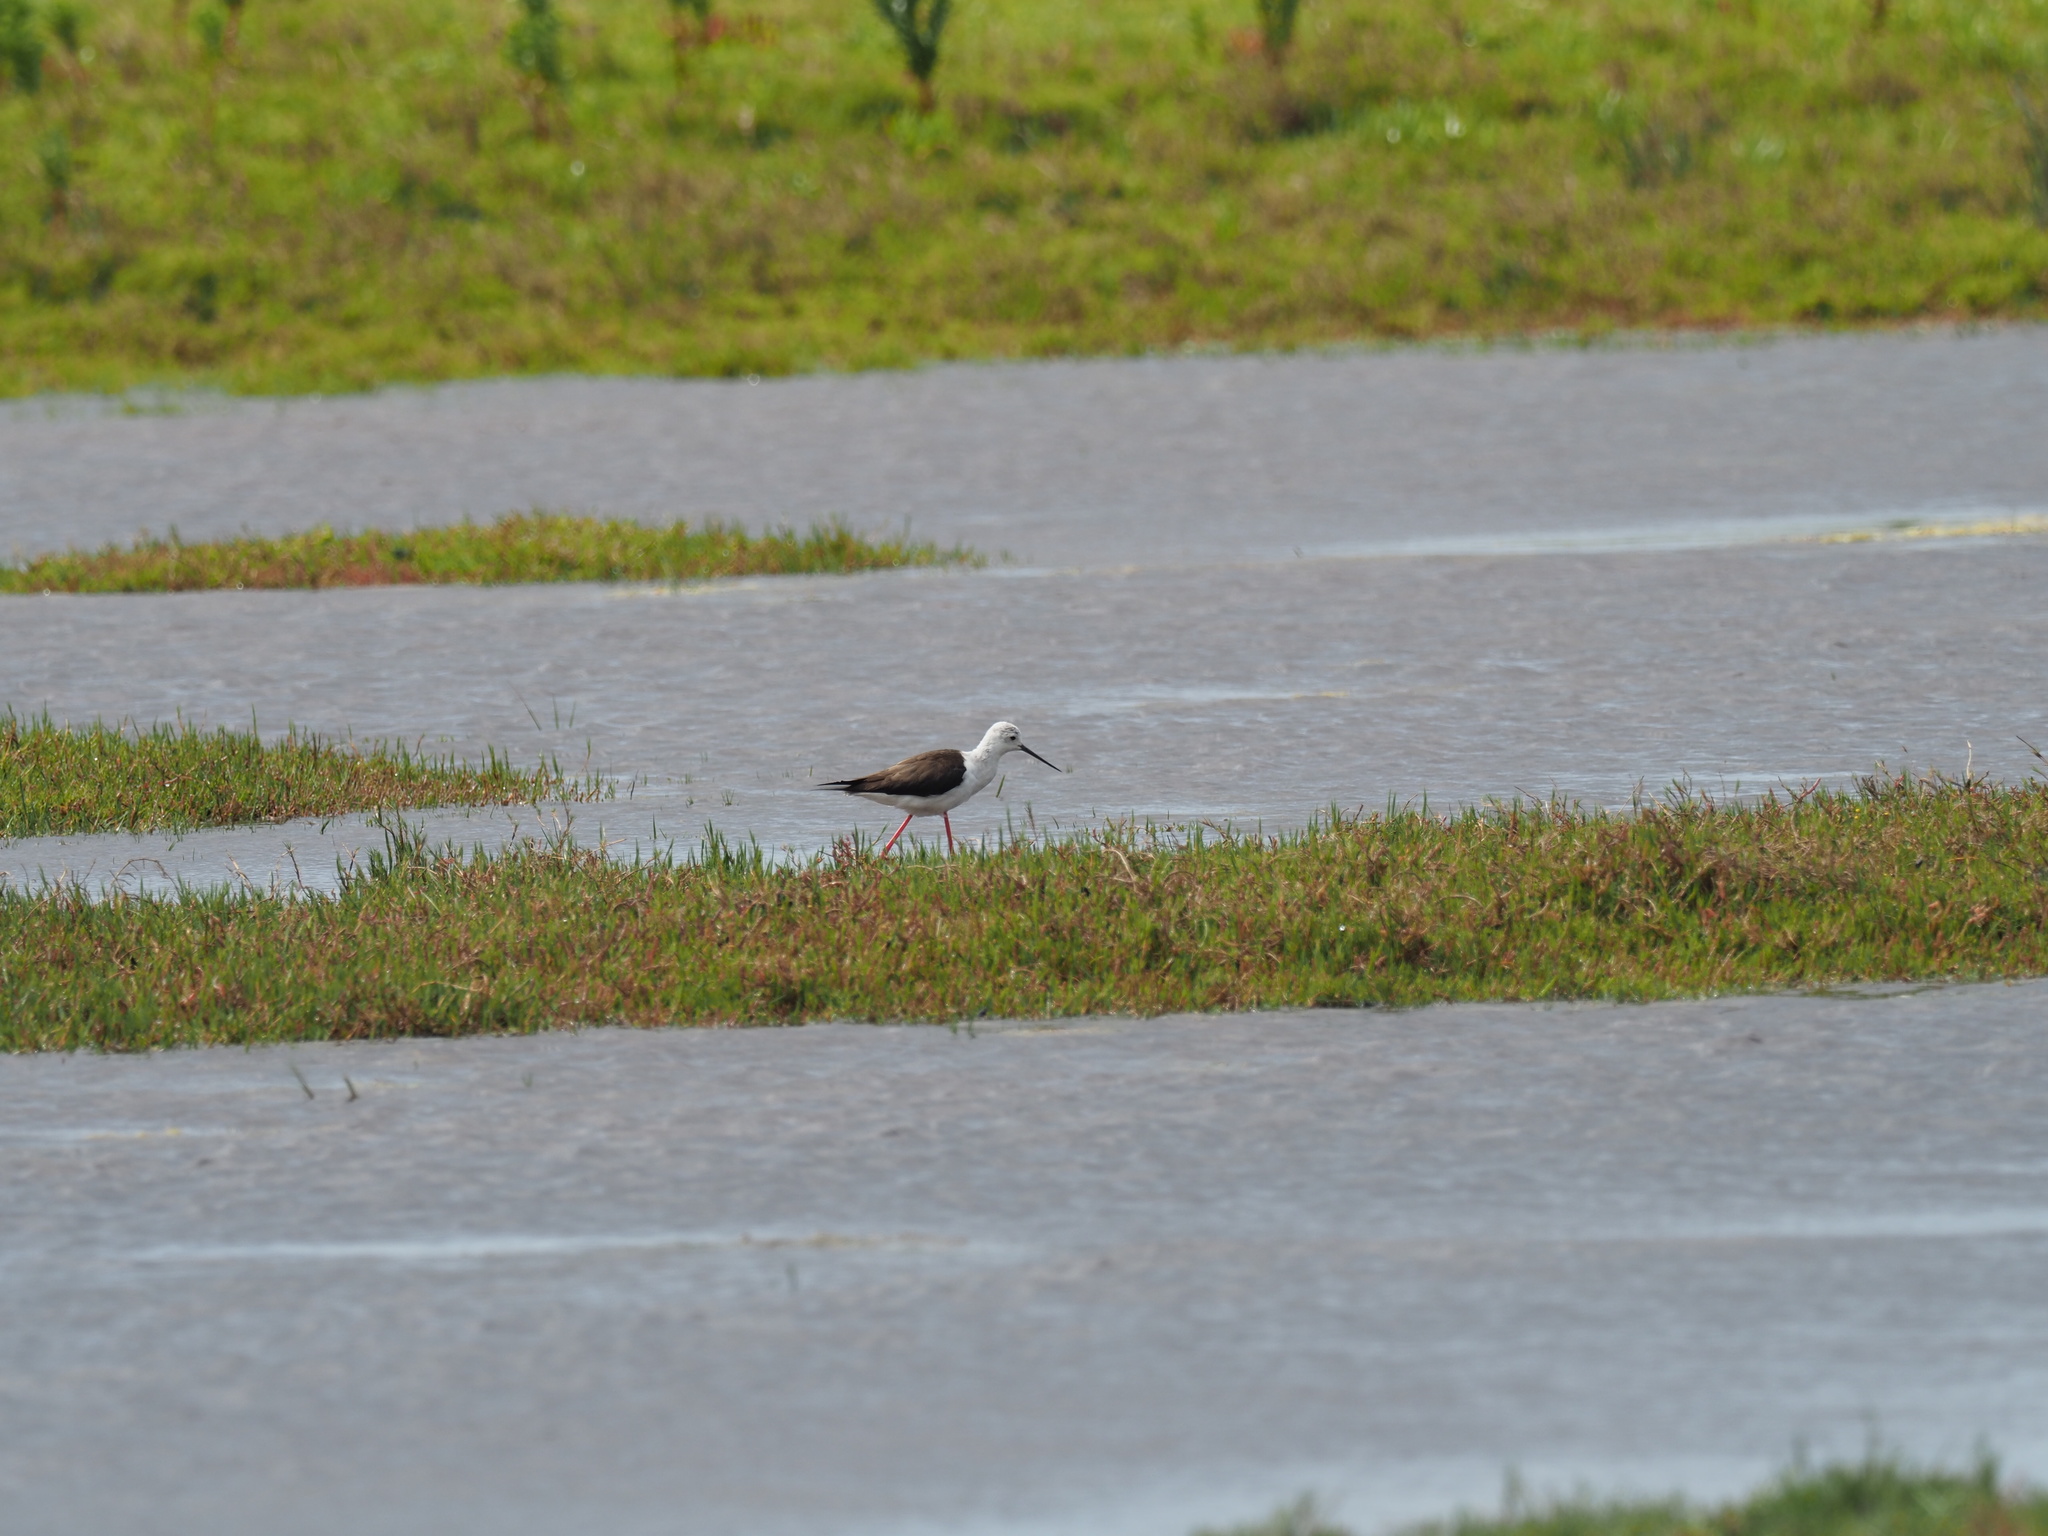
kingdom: Animalia
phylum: Chordata
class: Aves
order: Charadriiformes
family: Recurvirostridae
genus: Himantopus
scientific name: Himantopus himantopus
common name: Black-winged stilt
